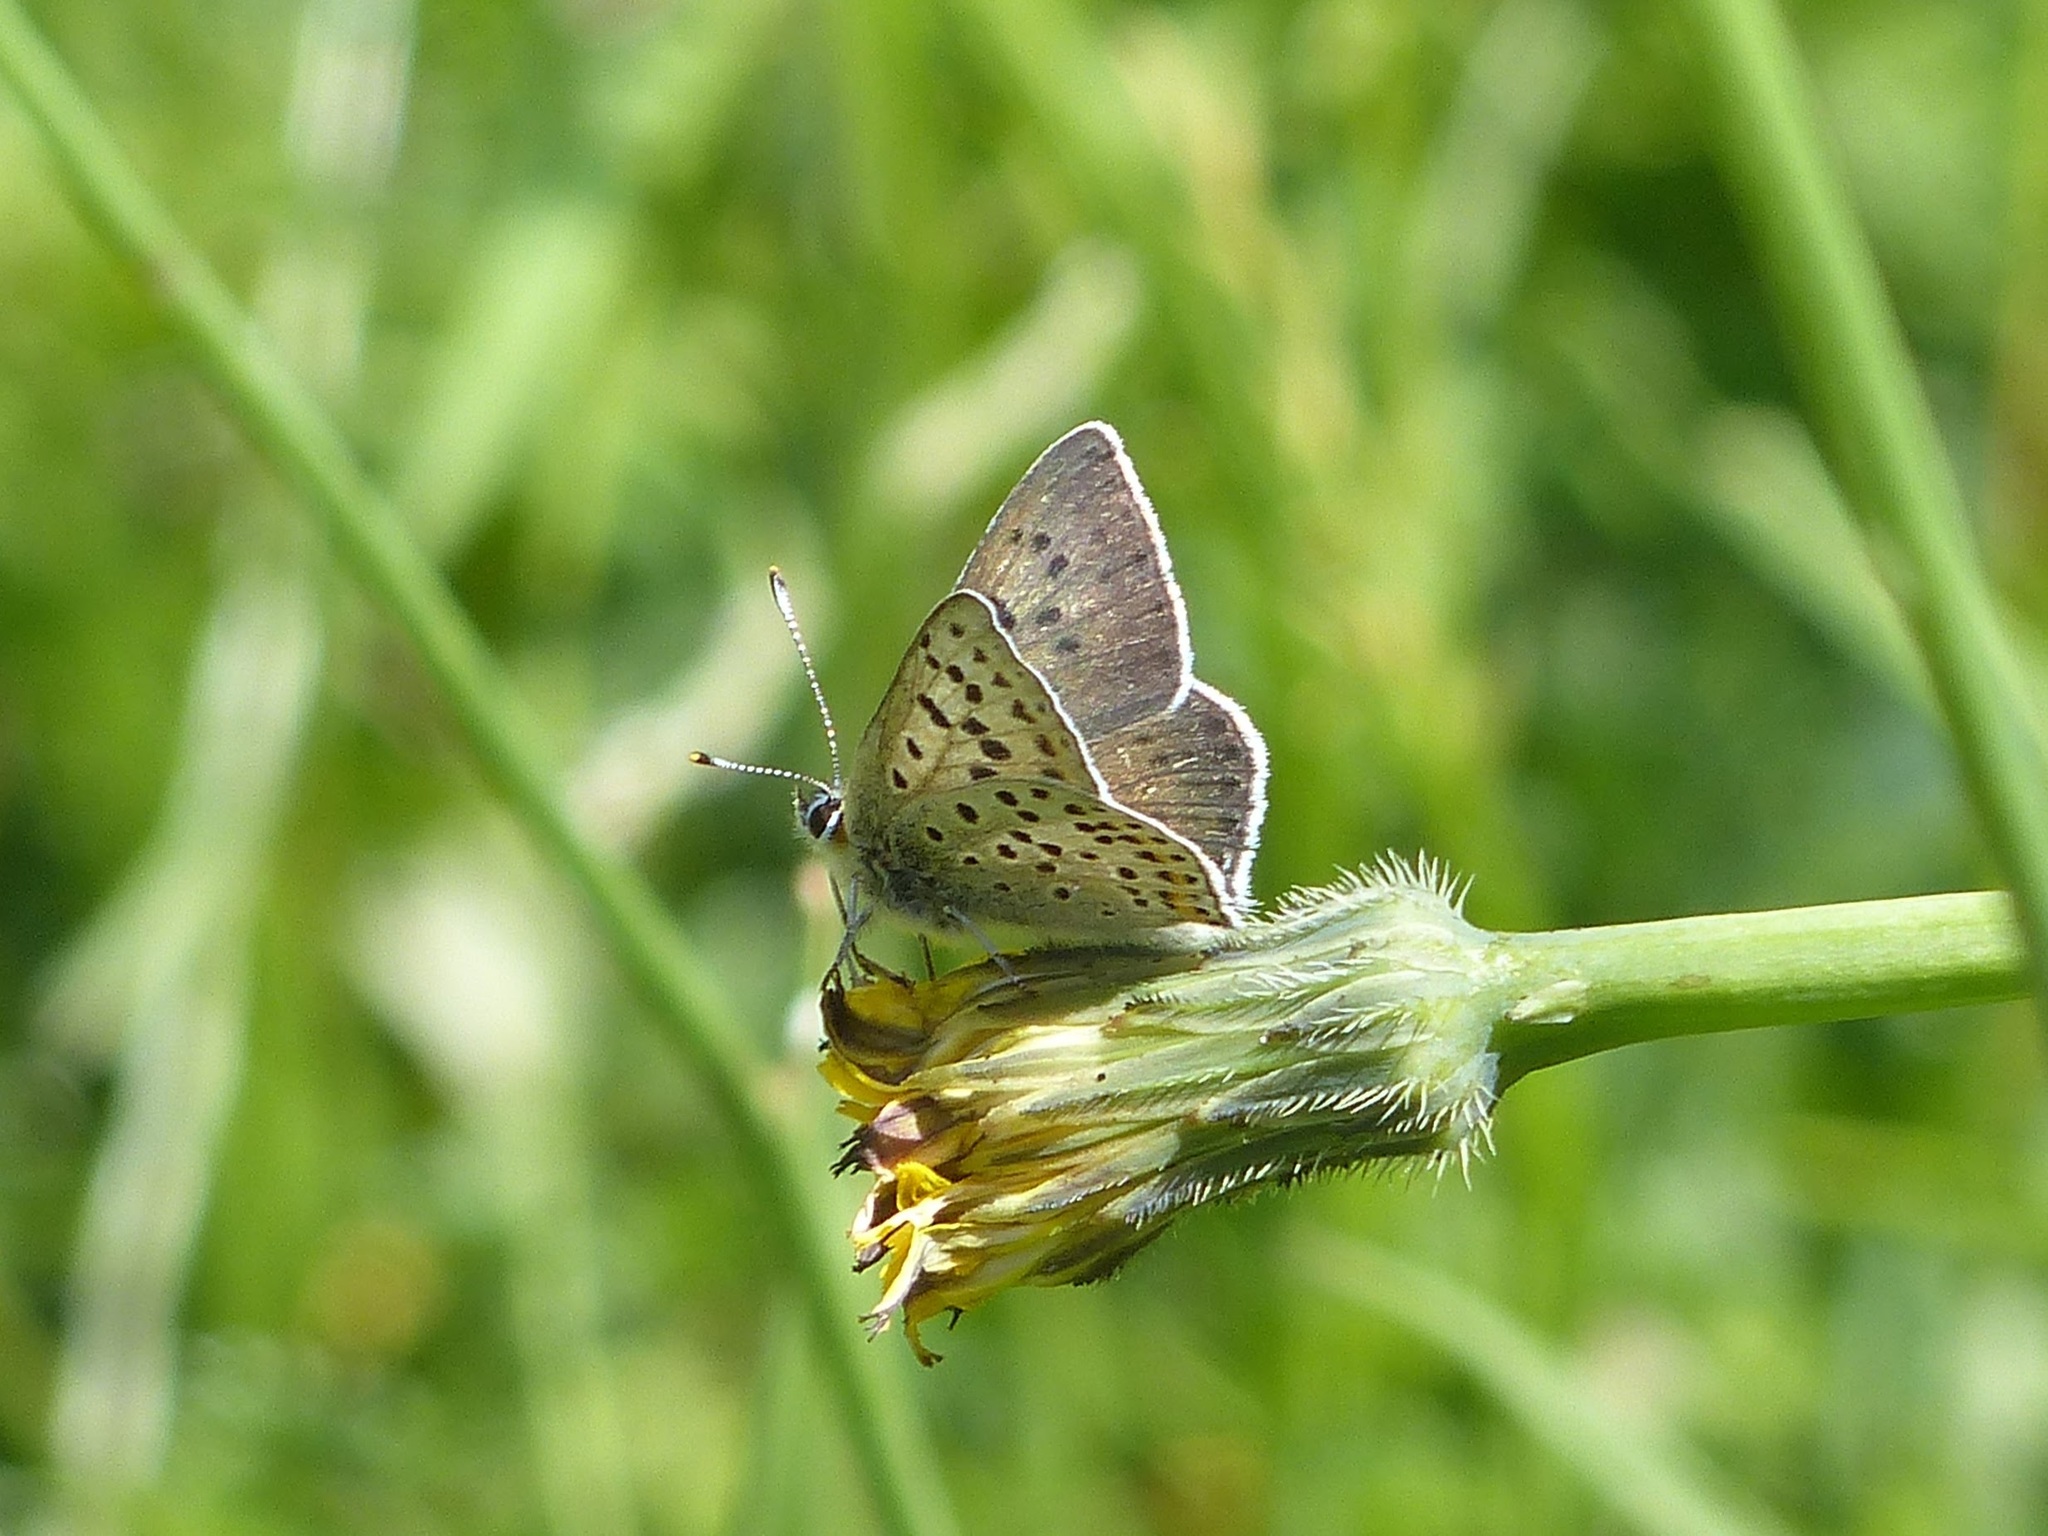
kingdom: Animalia
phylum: Arthropoda
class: Insecta
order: Lepidoptera
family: Lycaenidae
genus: Loweia
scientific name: Loweia tityrus
